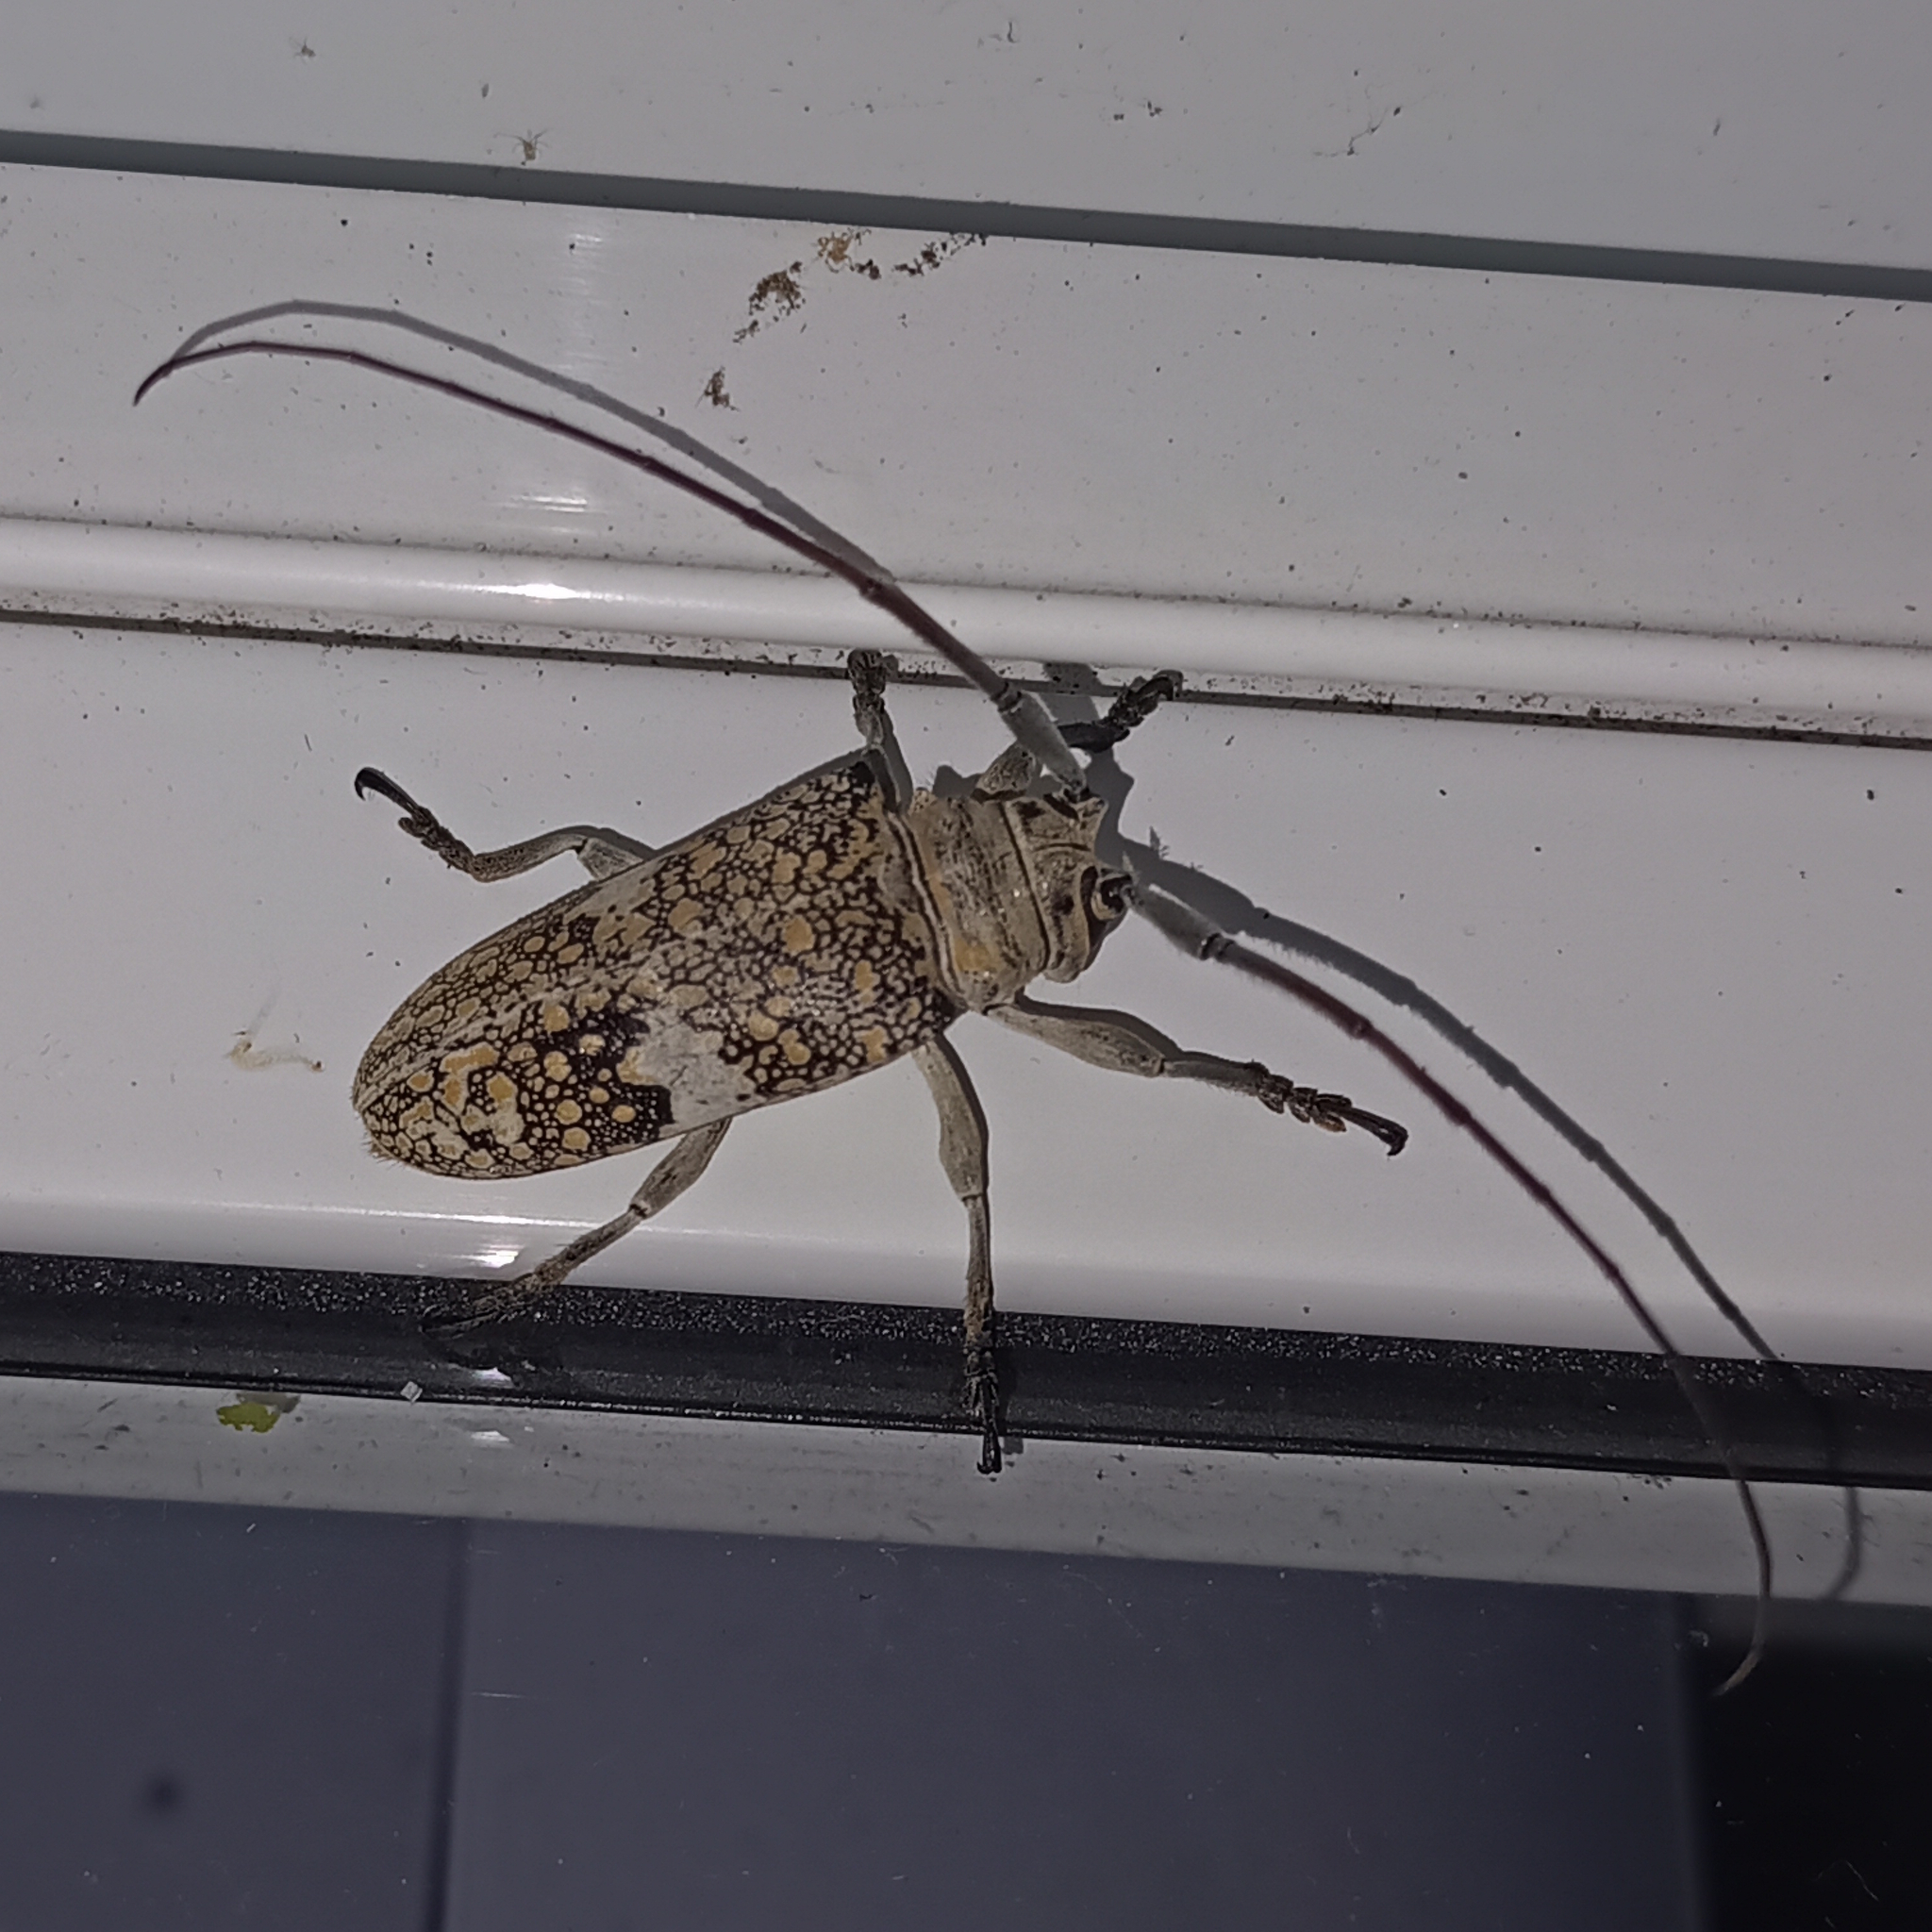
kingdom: Animalia
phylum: Arthropoda
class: Insecta
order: Coleoptera
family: Cerambycidae
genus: Lochmaeocles
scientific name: Lochmaeocles fasciatus
